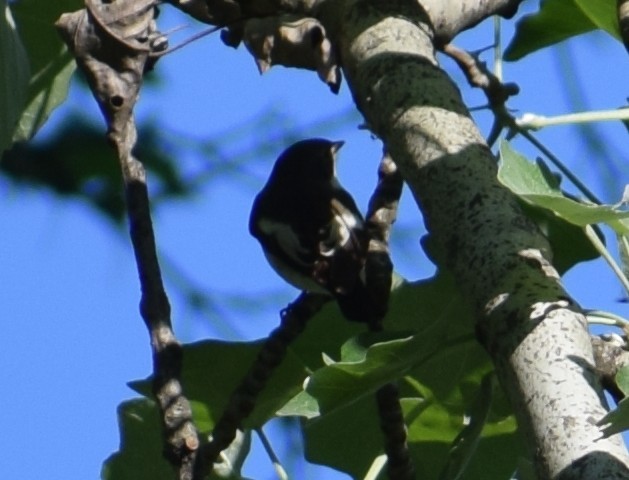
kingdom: Animalia
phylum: Chordata
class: Aves
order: Passeriformes
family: Muscicapidae
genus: Ficedula
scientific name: Ficedula hypoleuca
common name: European pied flycatcher
